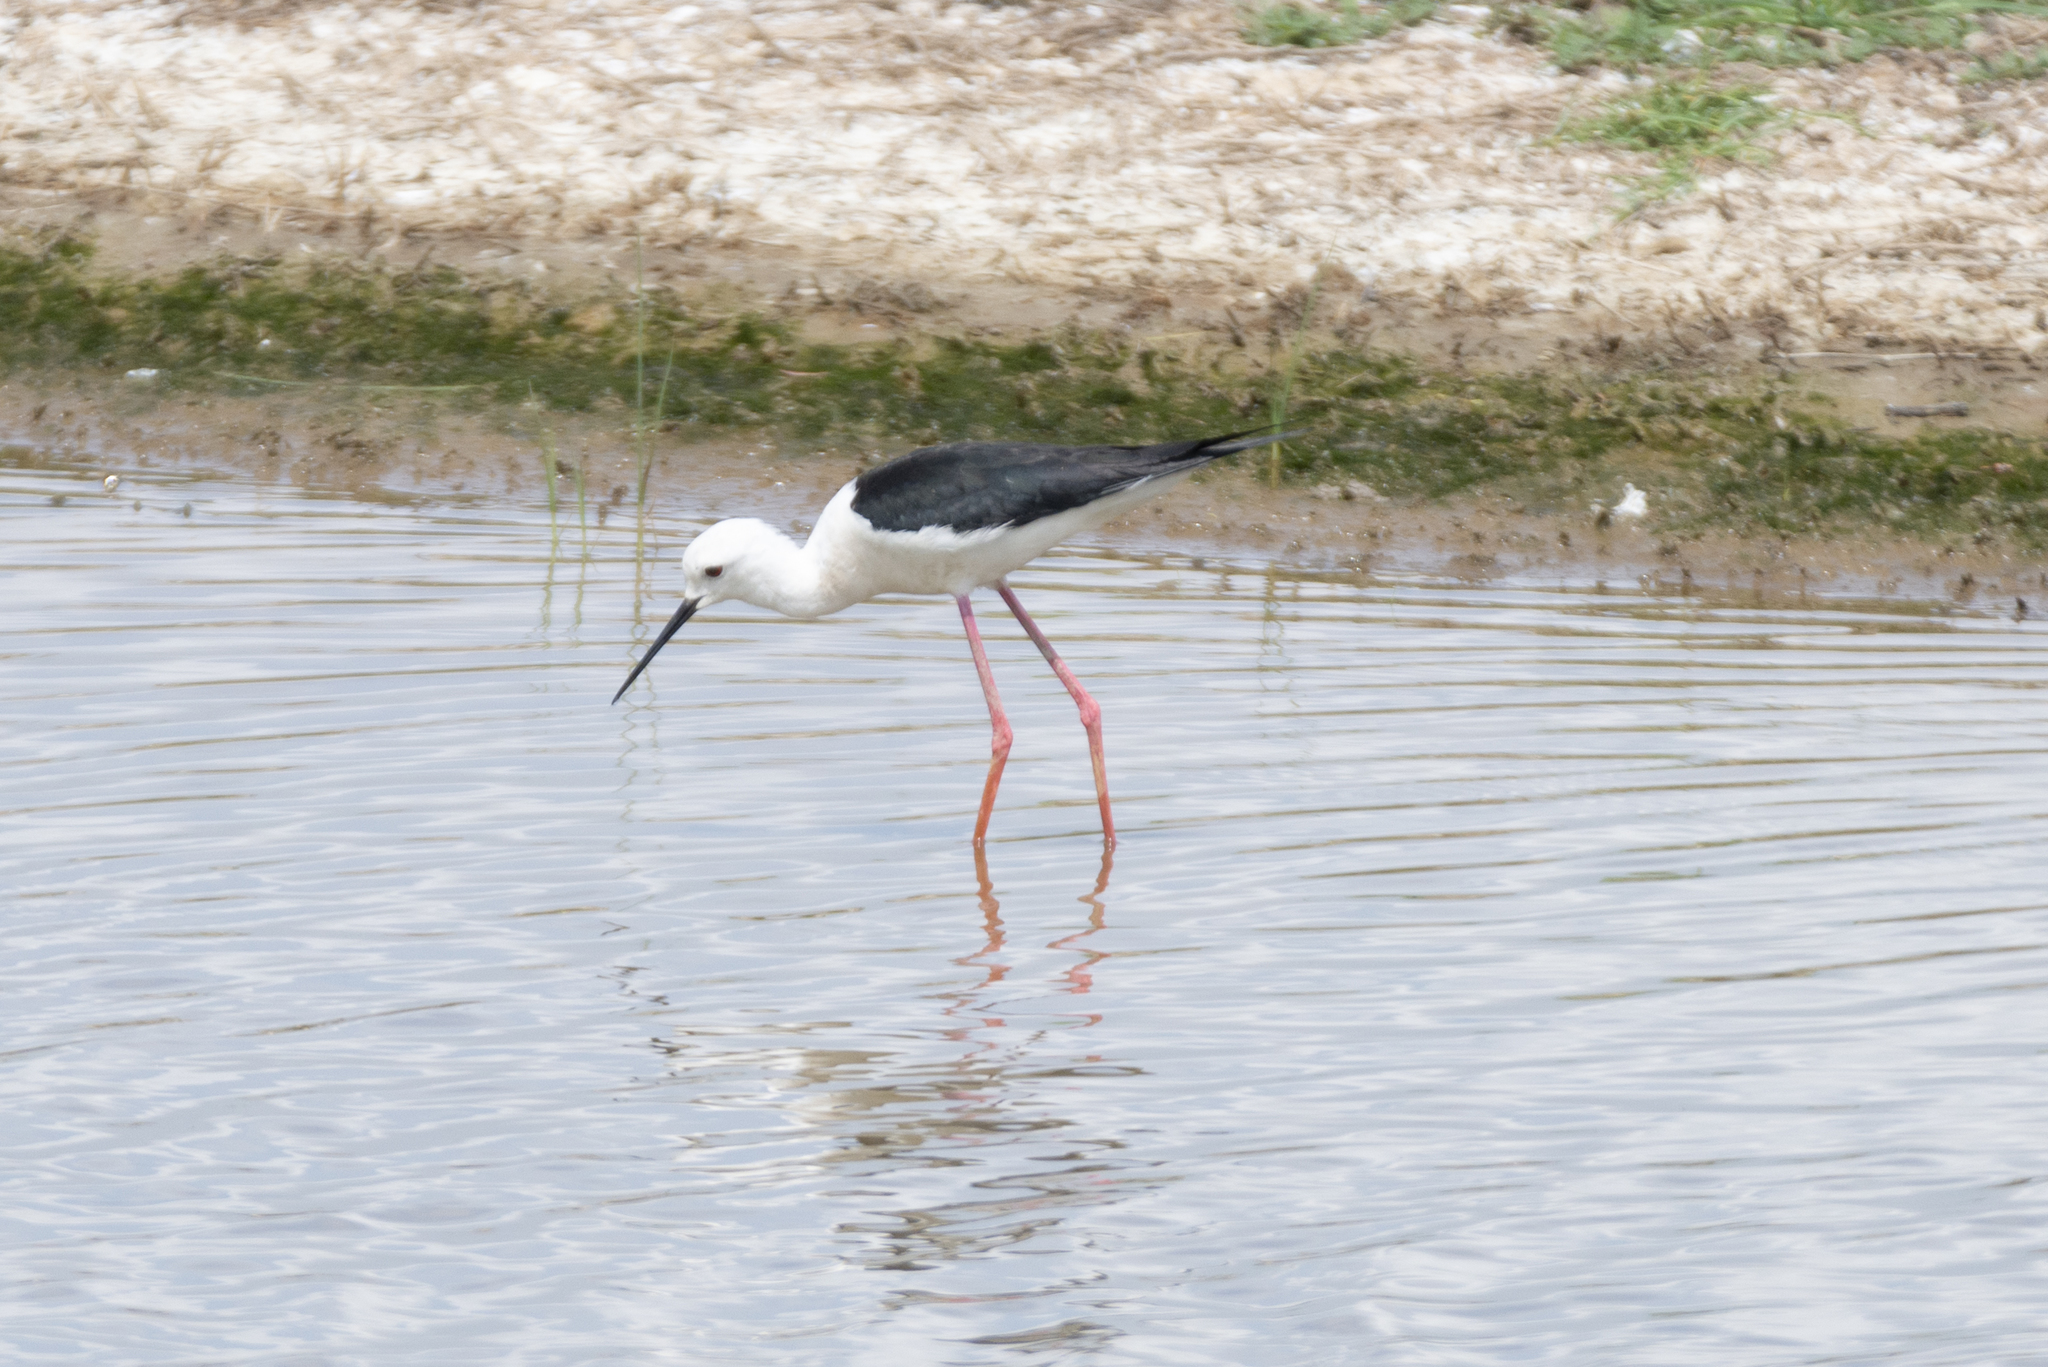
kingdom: Animalia
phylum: Chordata
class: Aves
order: Charadriiformes
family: Recurvirostridae
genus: Himantopus
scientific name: Himantopus himantopus
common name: Black-winged stilt
